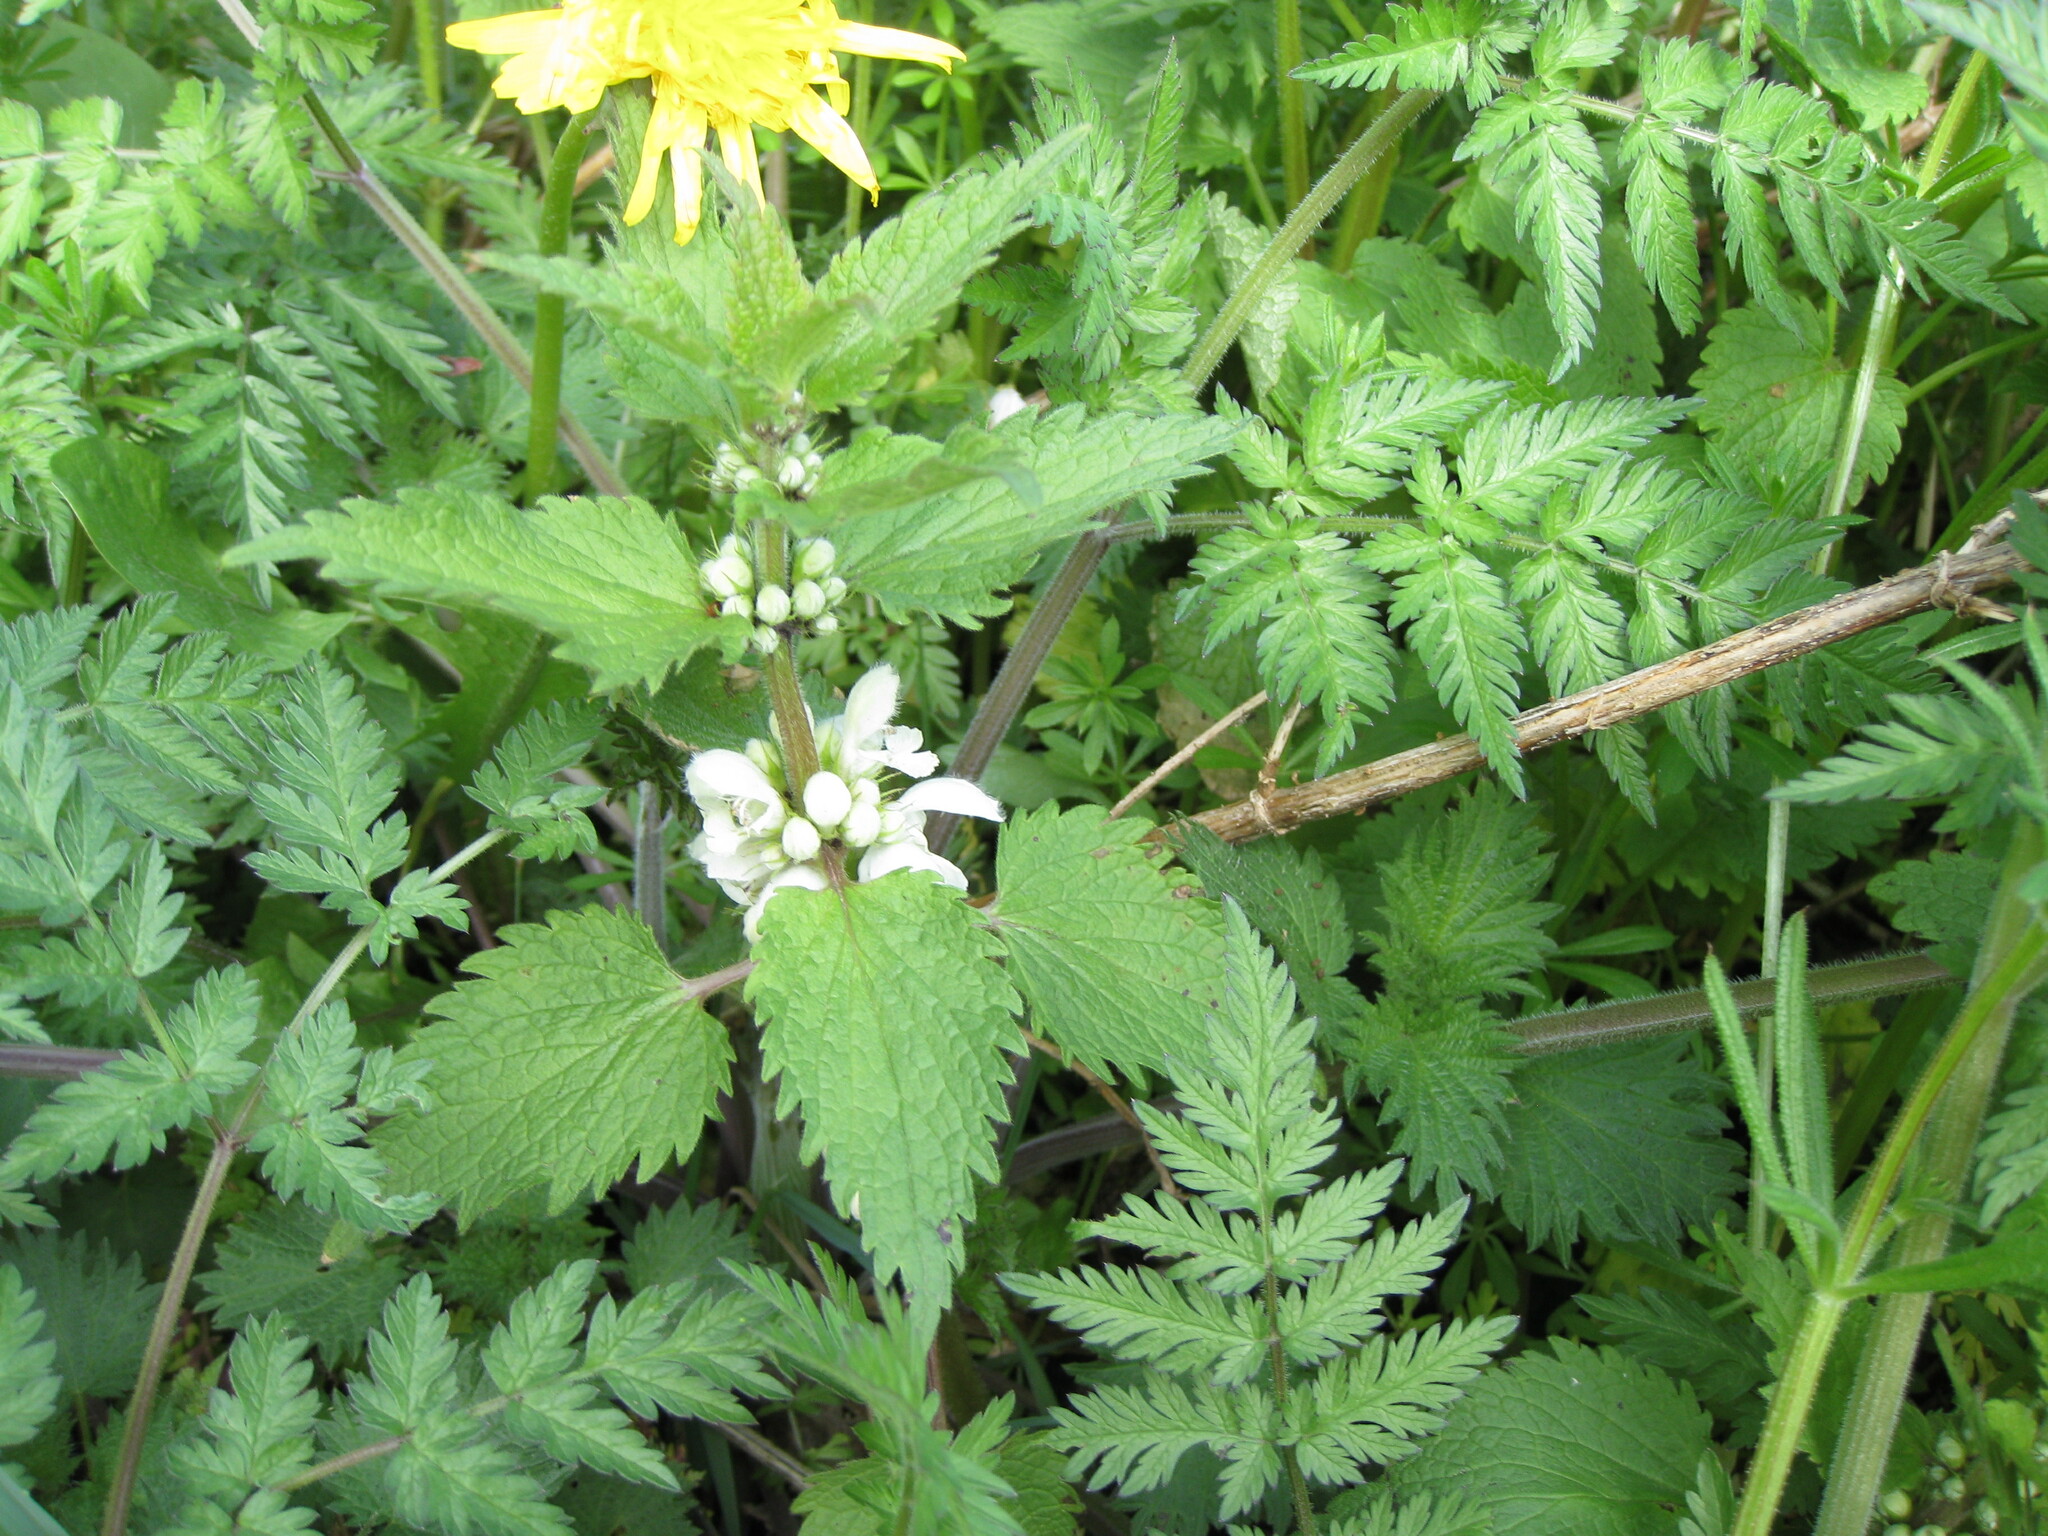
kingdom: Plantae
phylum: Tracheophyta
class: Magnoliopsida
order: Lamiales
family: Lamiaceae
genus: Lamium
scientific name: Lamium album
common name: White dead-nettle
